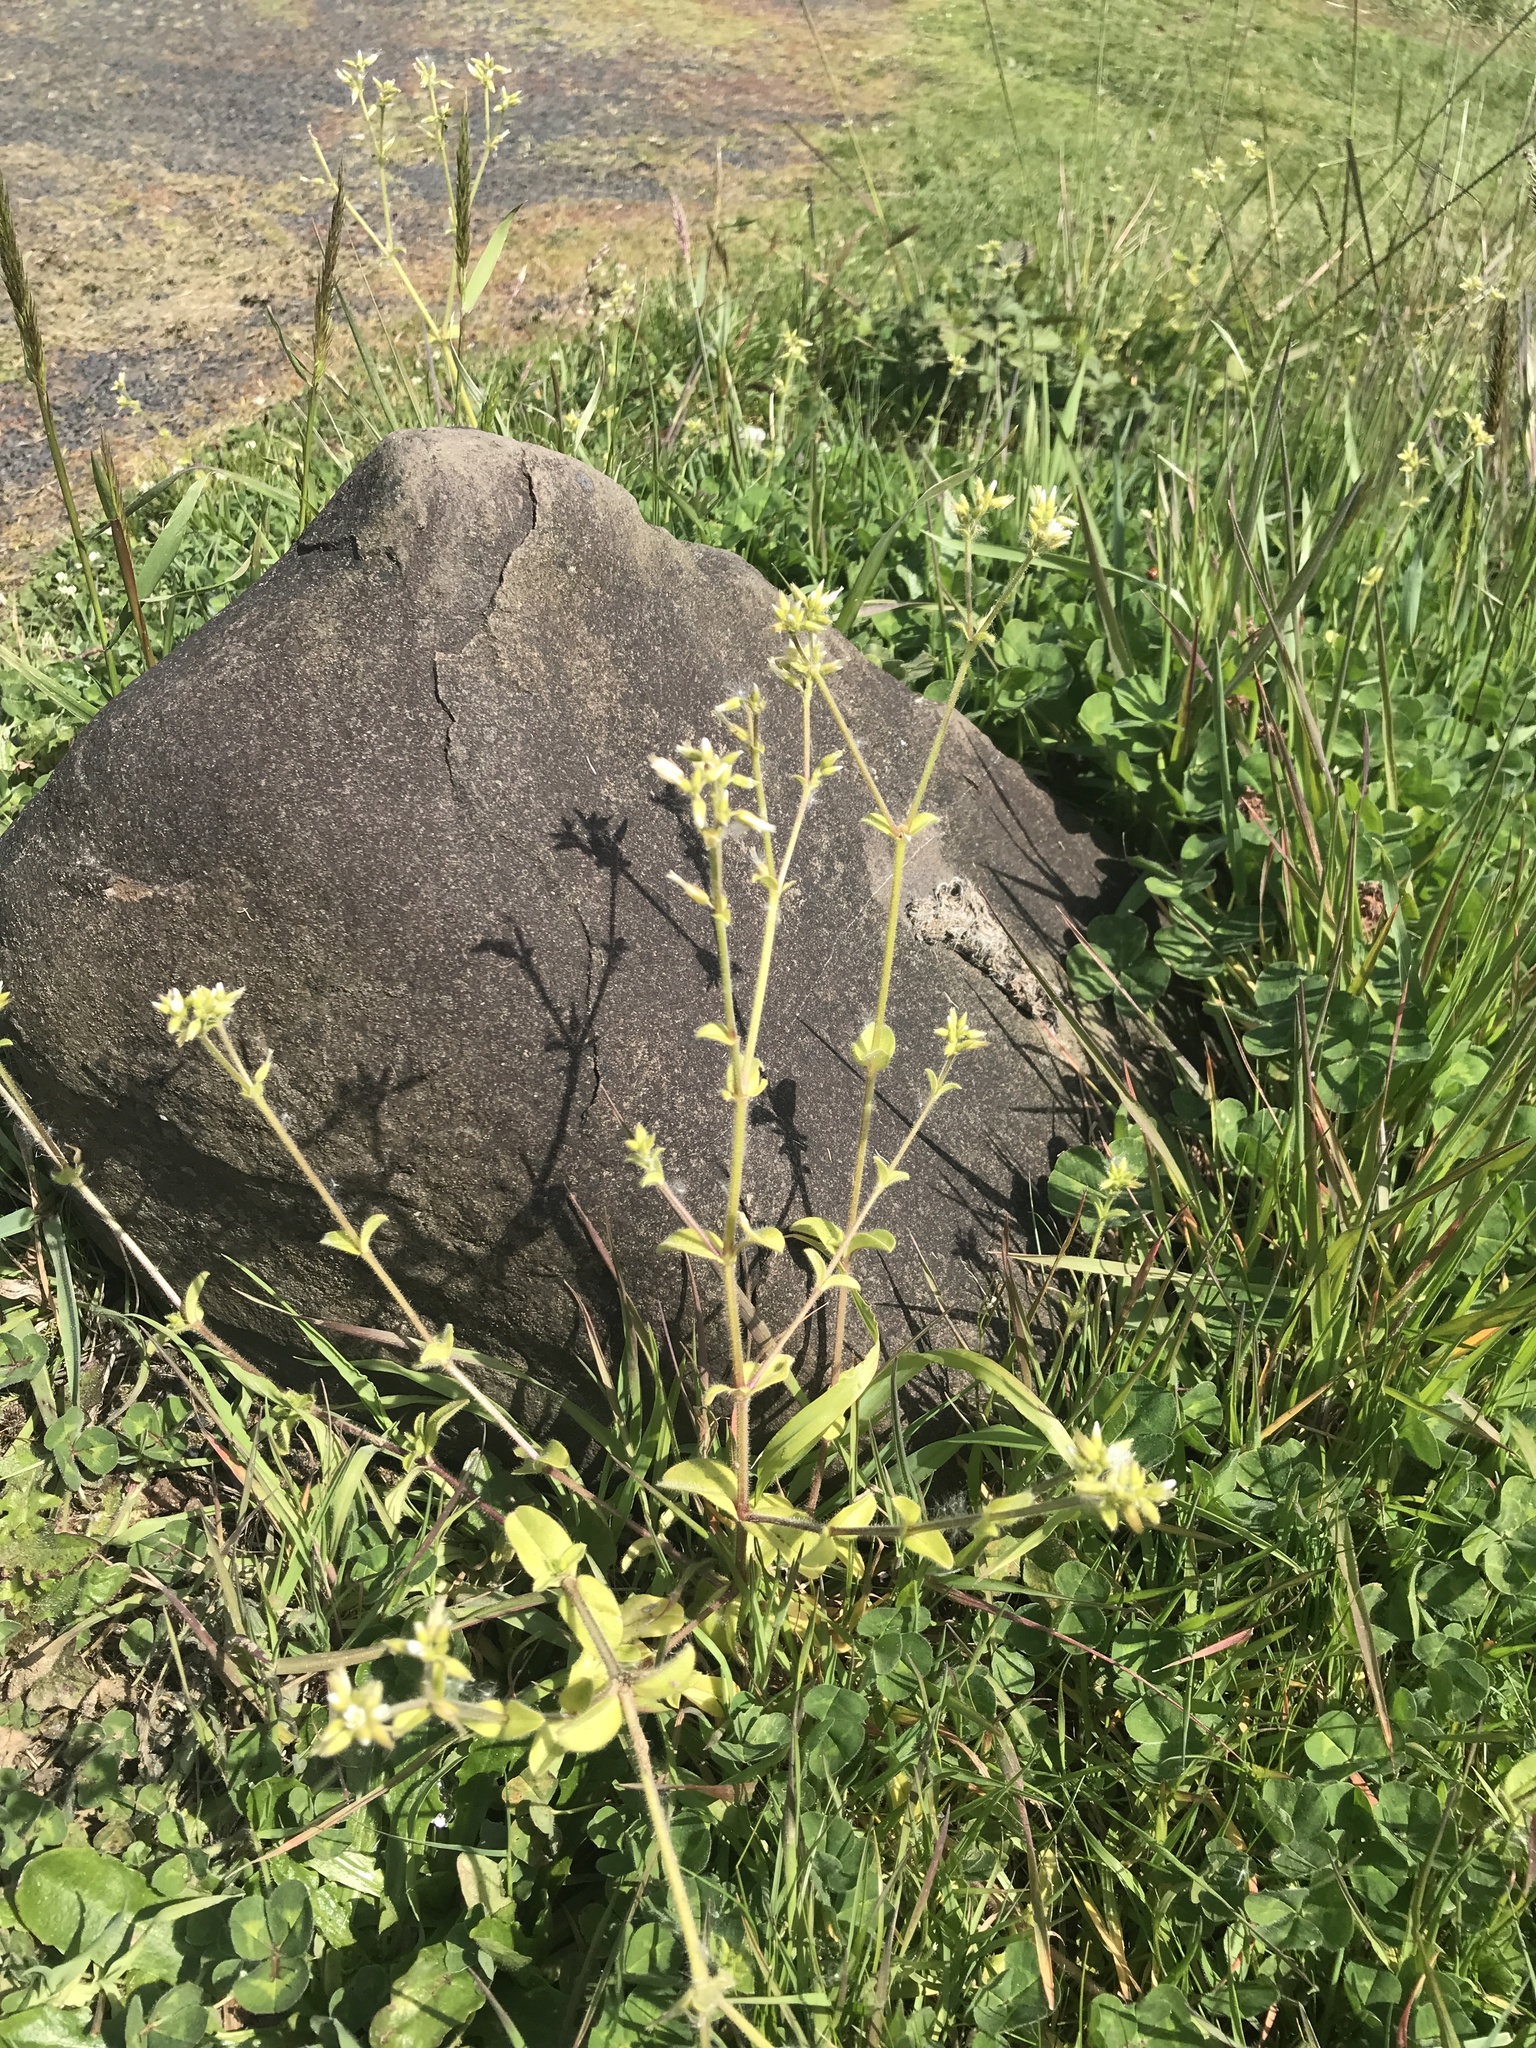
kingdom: Plantae
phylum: Tracheophyta
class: Magnoliopsida
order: Caryophyllales
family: Caryophyllaceae
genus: Cerastium
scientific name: Cerastium glomeratum
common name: Sticky chickweed
